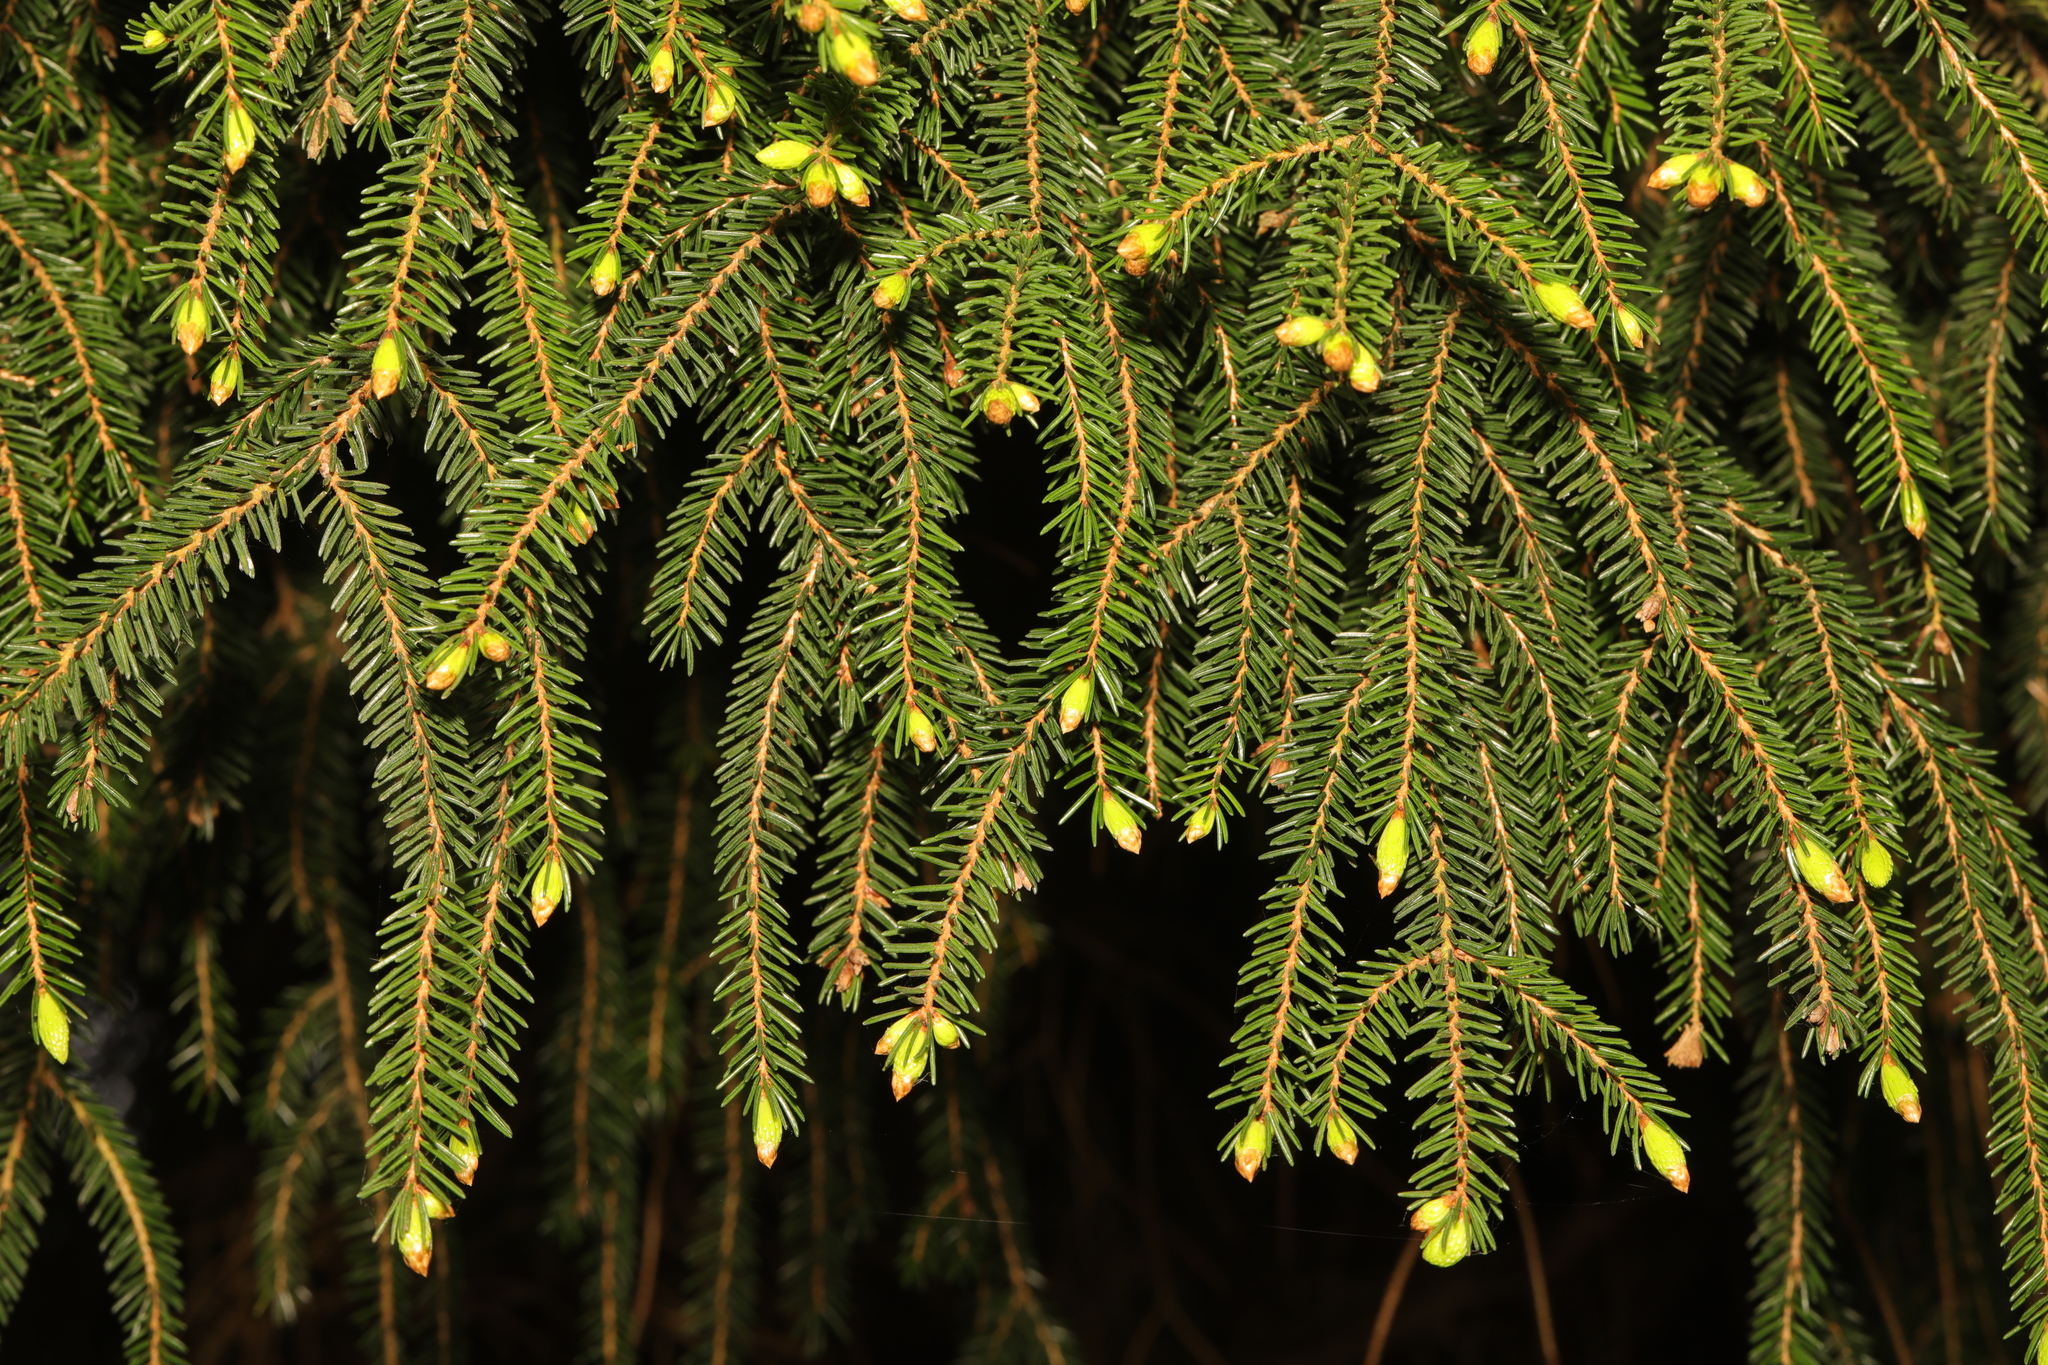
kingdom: Plantae
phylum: Tracheophyta
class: Pinopsida
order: Pinales
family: Pinaceae
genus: Picea
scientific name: Picea abies
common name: Norway spruce
